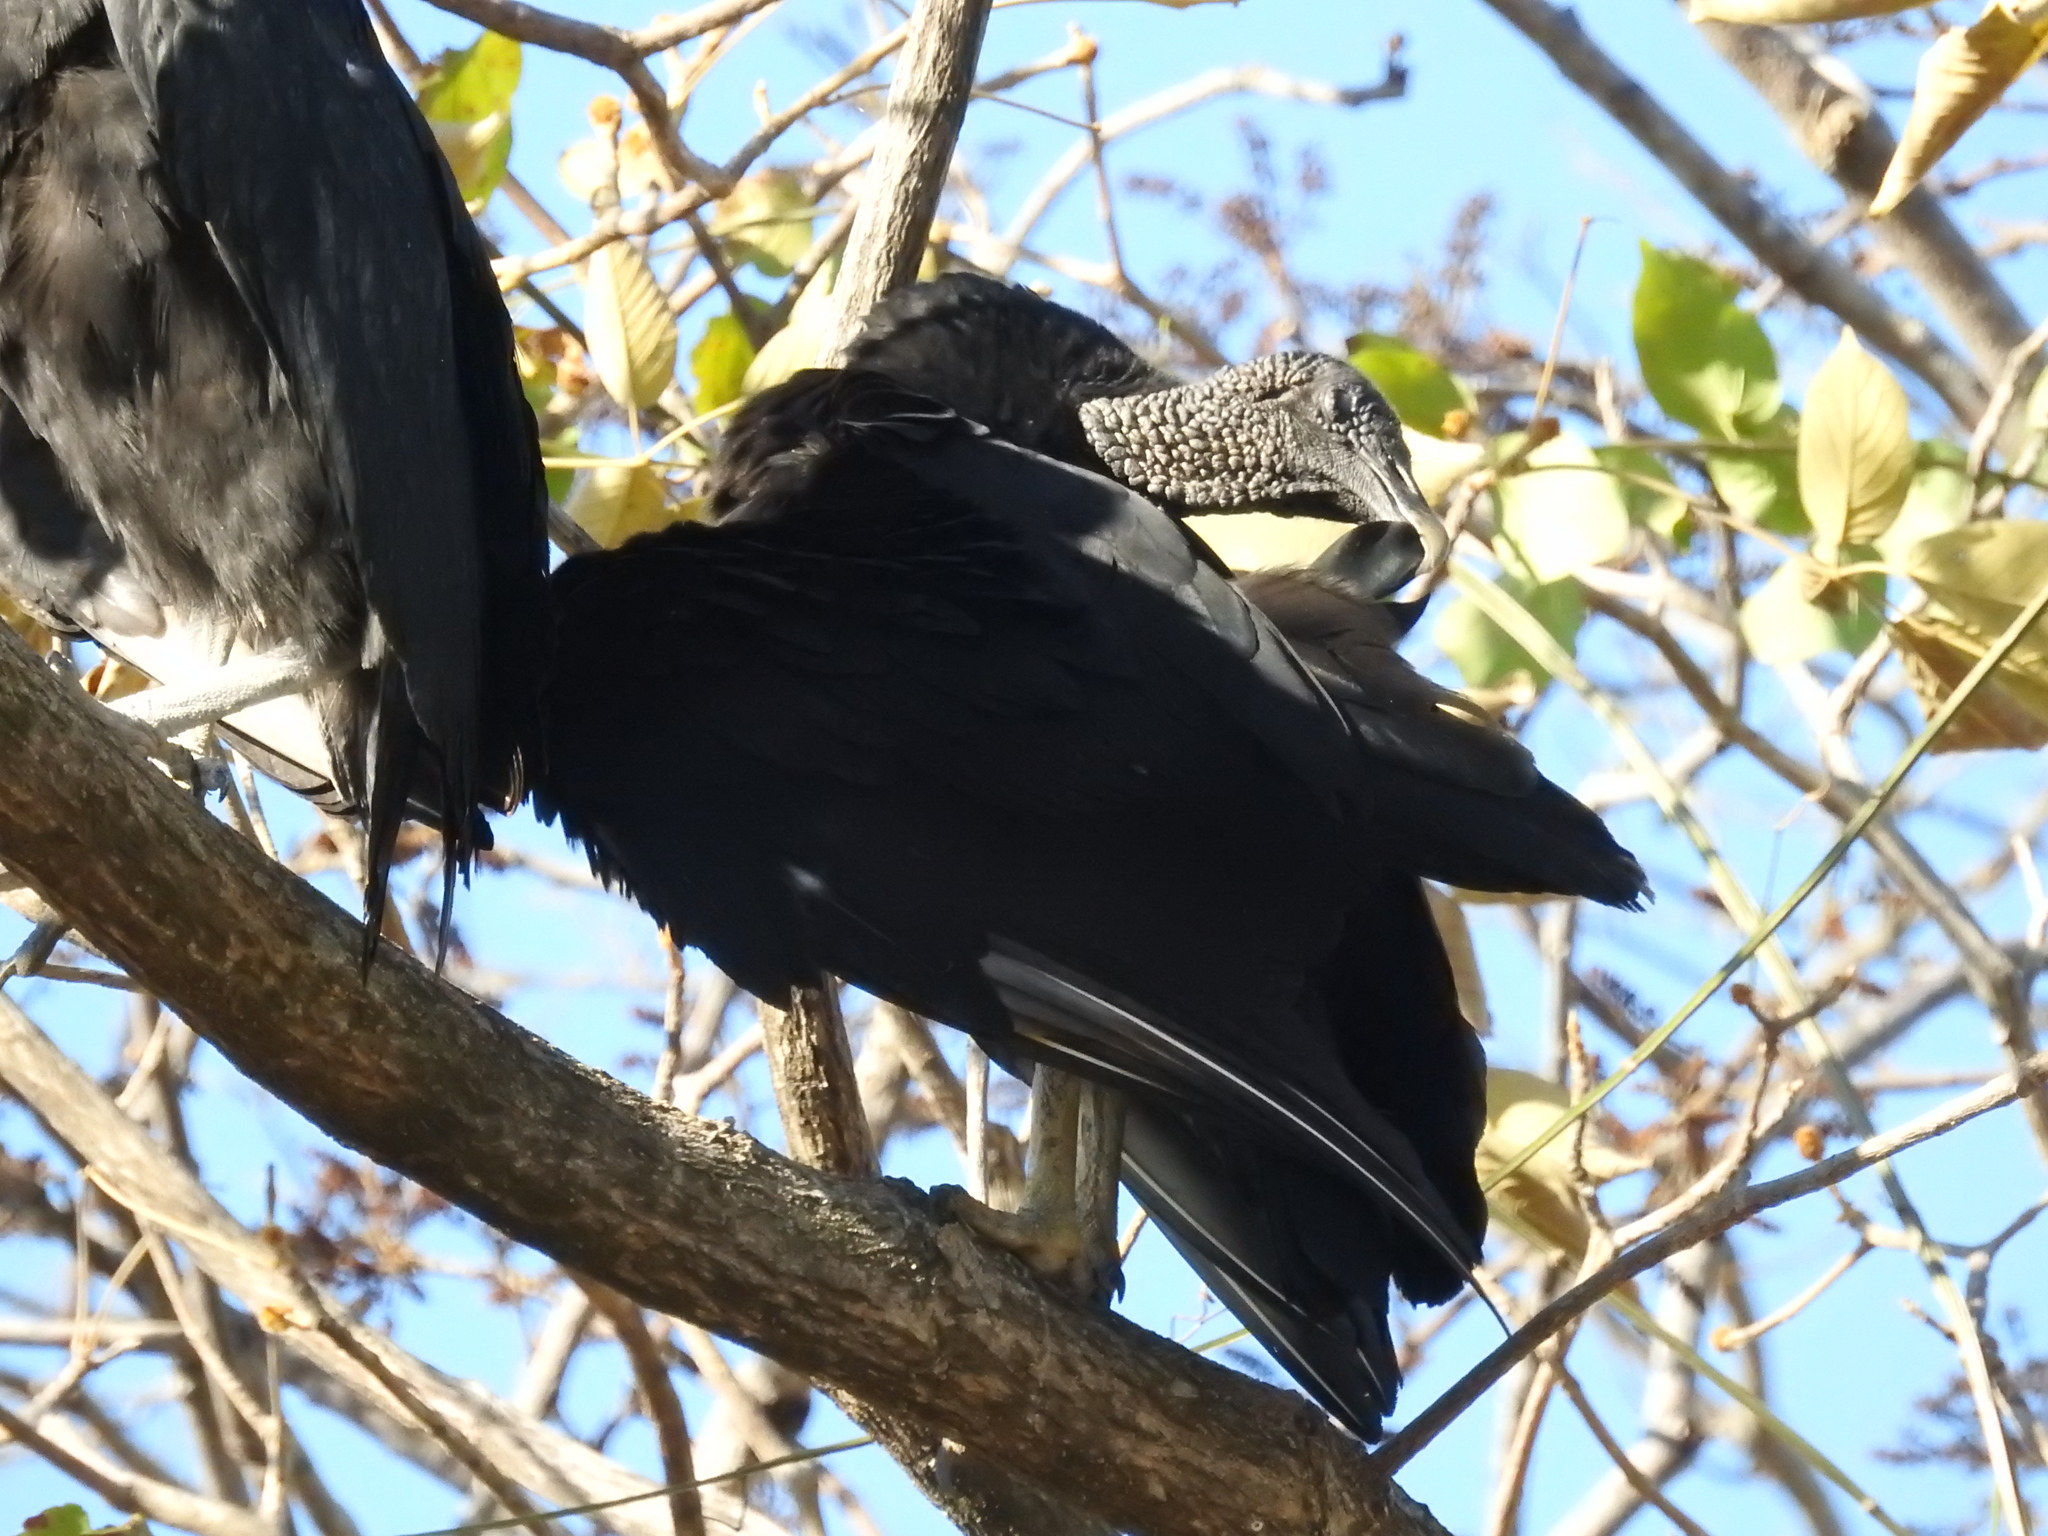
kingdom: Animalia
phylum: Chordata
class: Aves
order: Accipitriformes
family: Cathartidae
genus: Coragyps
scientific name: Coragyps atratus
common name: Black vulture
